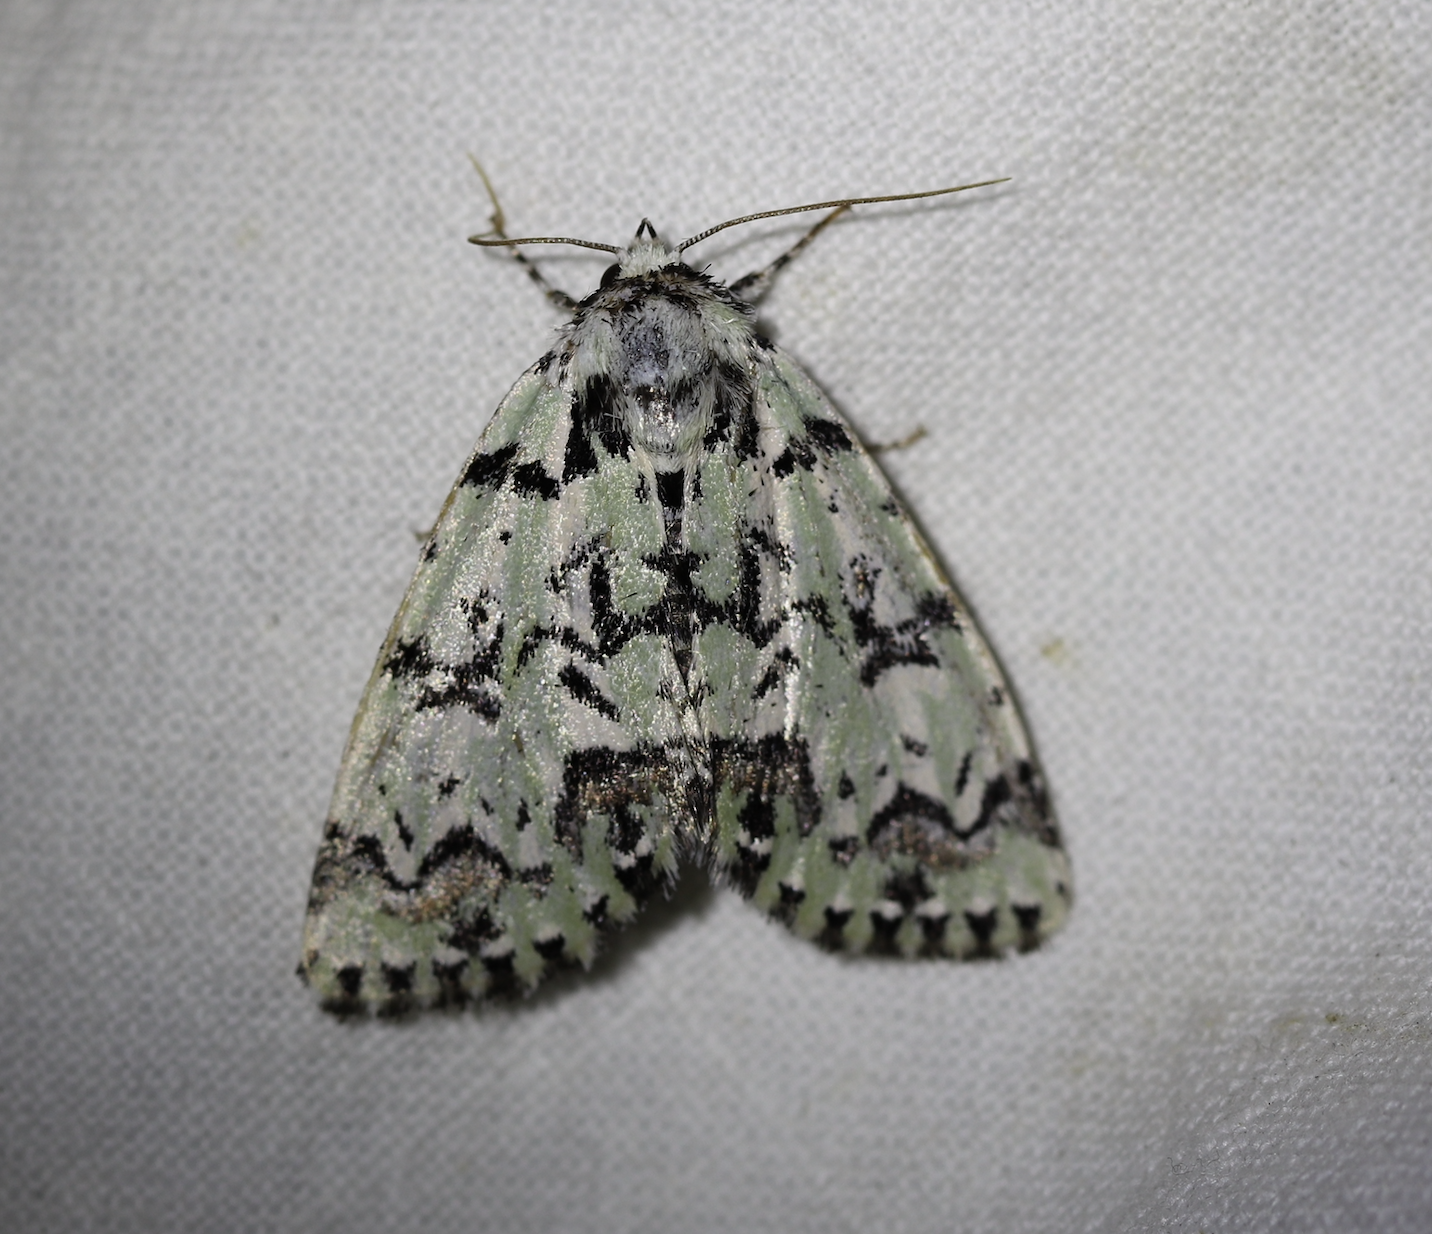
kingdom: Animalia
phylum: Arthropoda
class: Insecta
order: Lepidoptera
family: Noctuidae
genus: Moma
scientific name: Moma alpium
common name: Scarce merveille du jour
